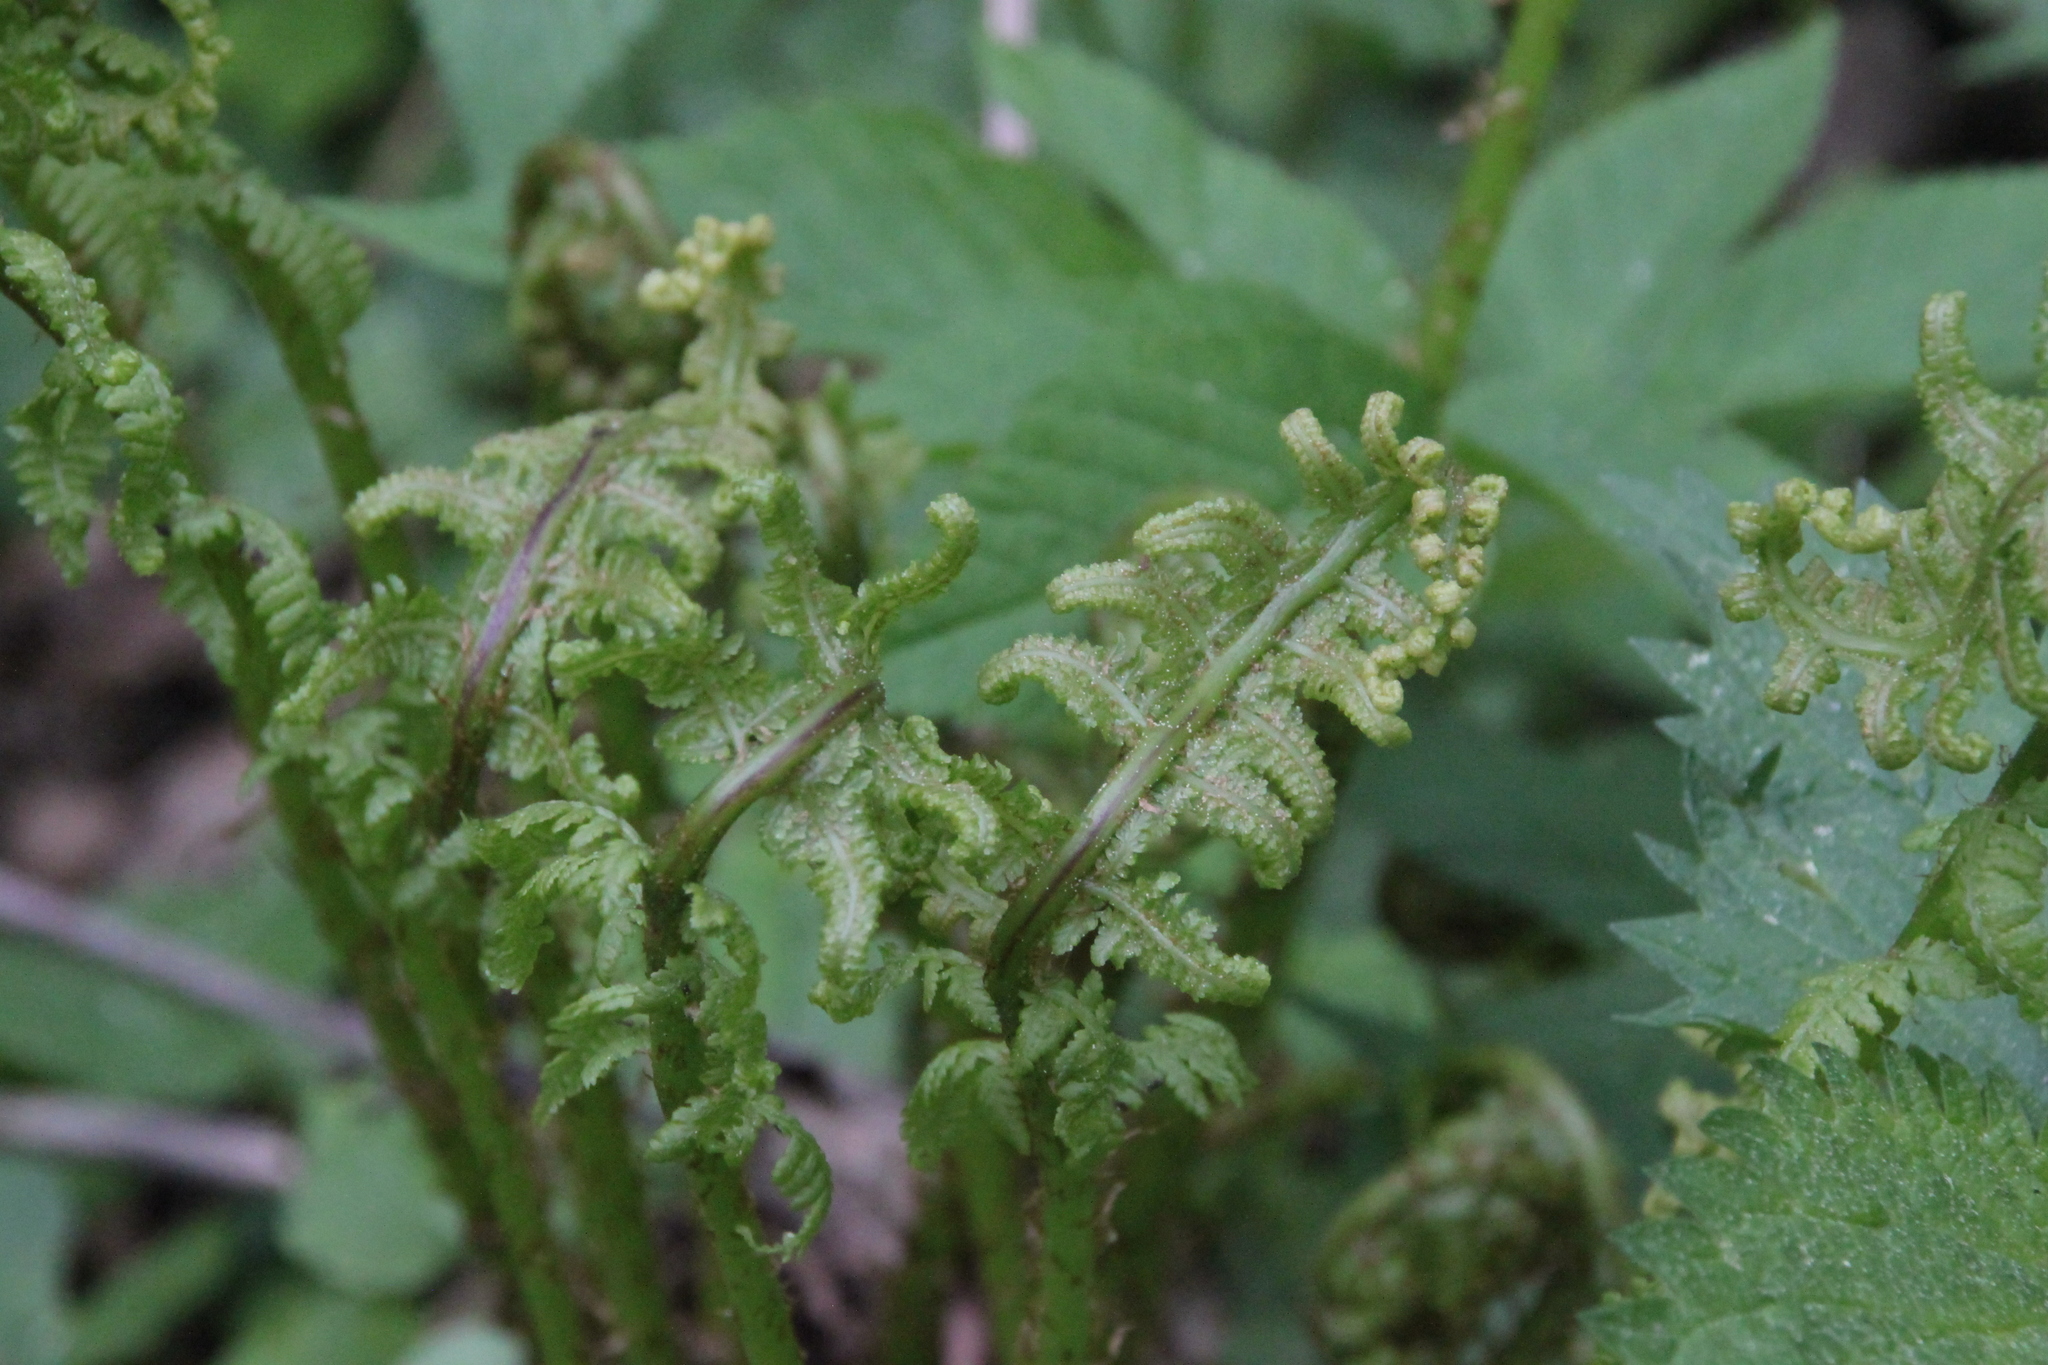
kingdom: Plantae
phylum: Tracheophyta
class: Polypodiopsida
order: Polypodiales
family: Athyriaceae
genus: Athyrium
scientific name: Athyrium filix-femina
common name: Lady fern
